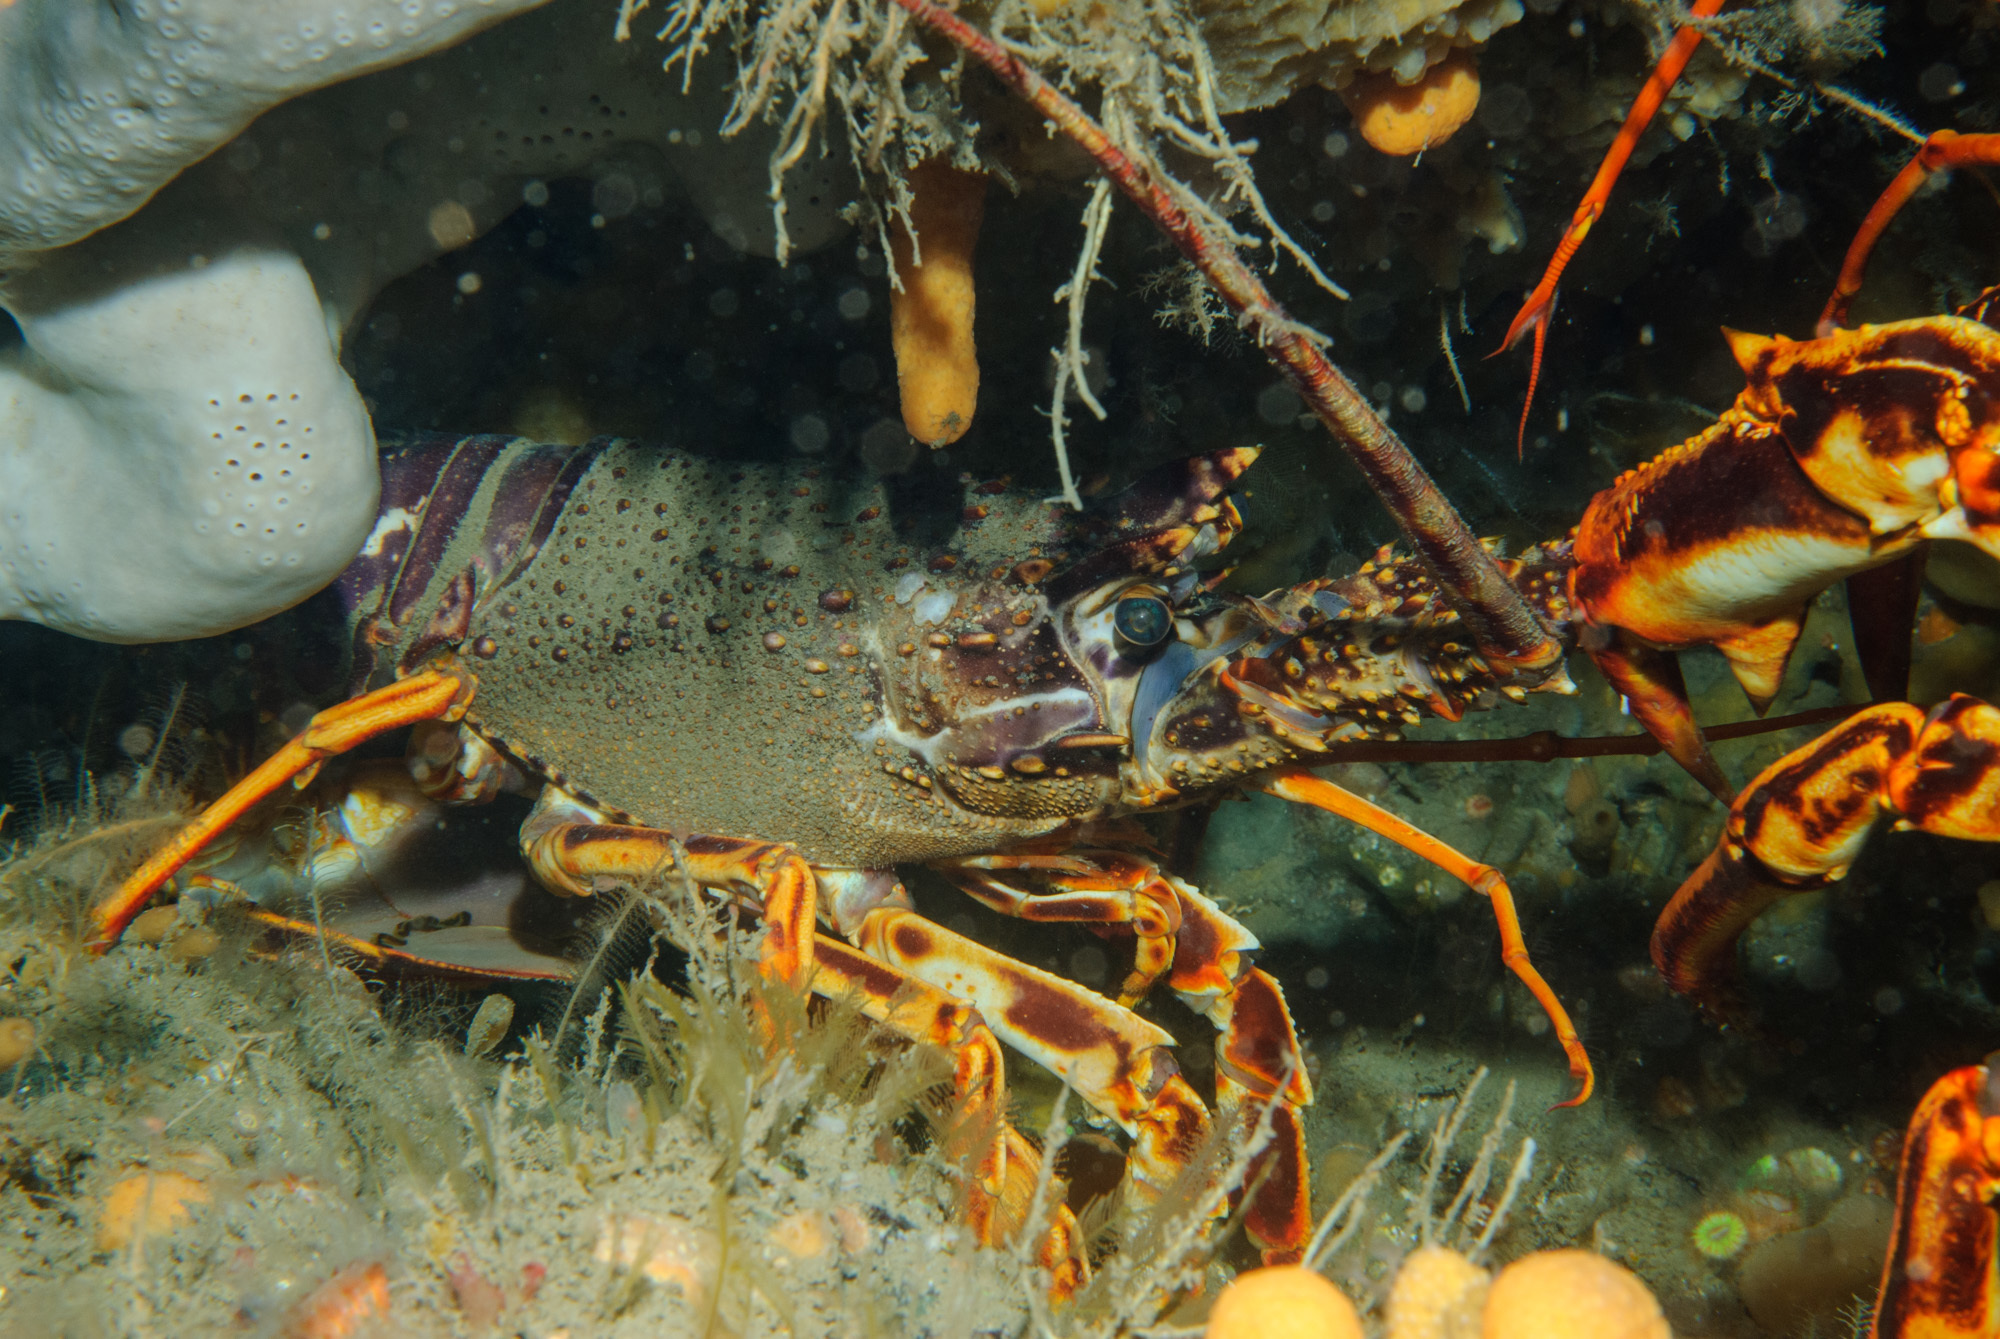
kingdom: Animalia
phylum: Arthropoda
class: Malacostraca
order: Decapoda
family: Palinuridae
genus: Palinurus
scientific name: Palinurus elephas
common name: European spiny lobster
